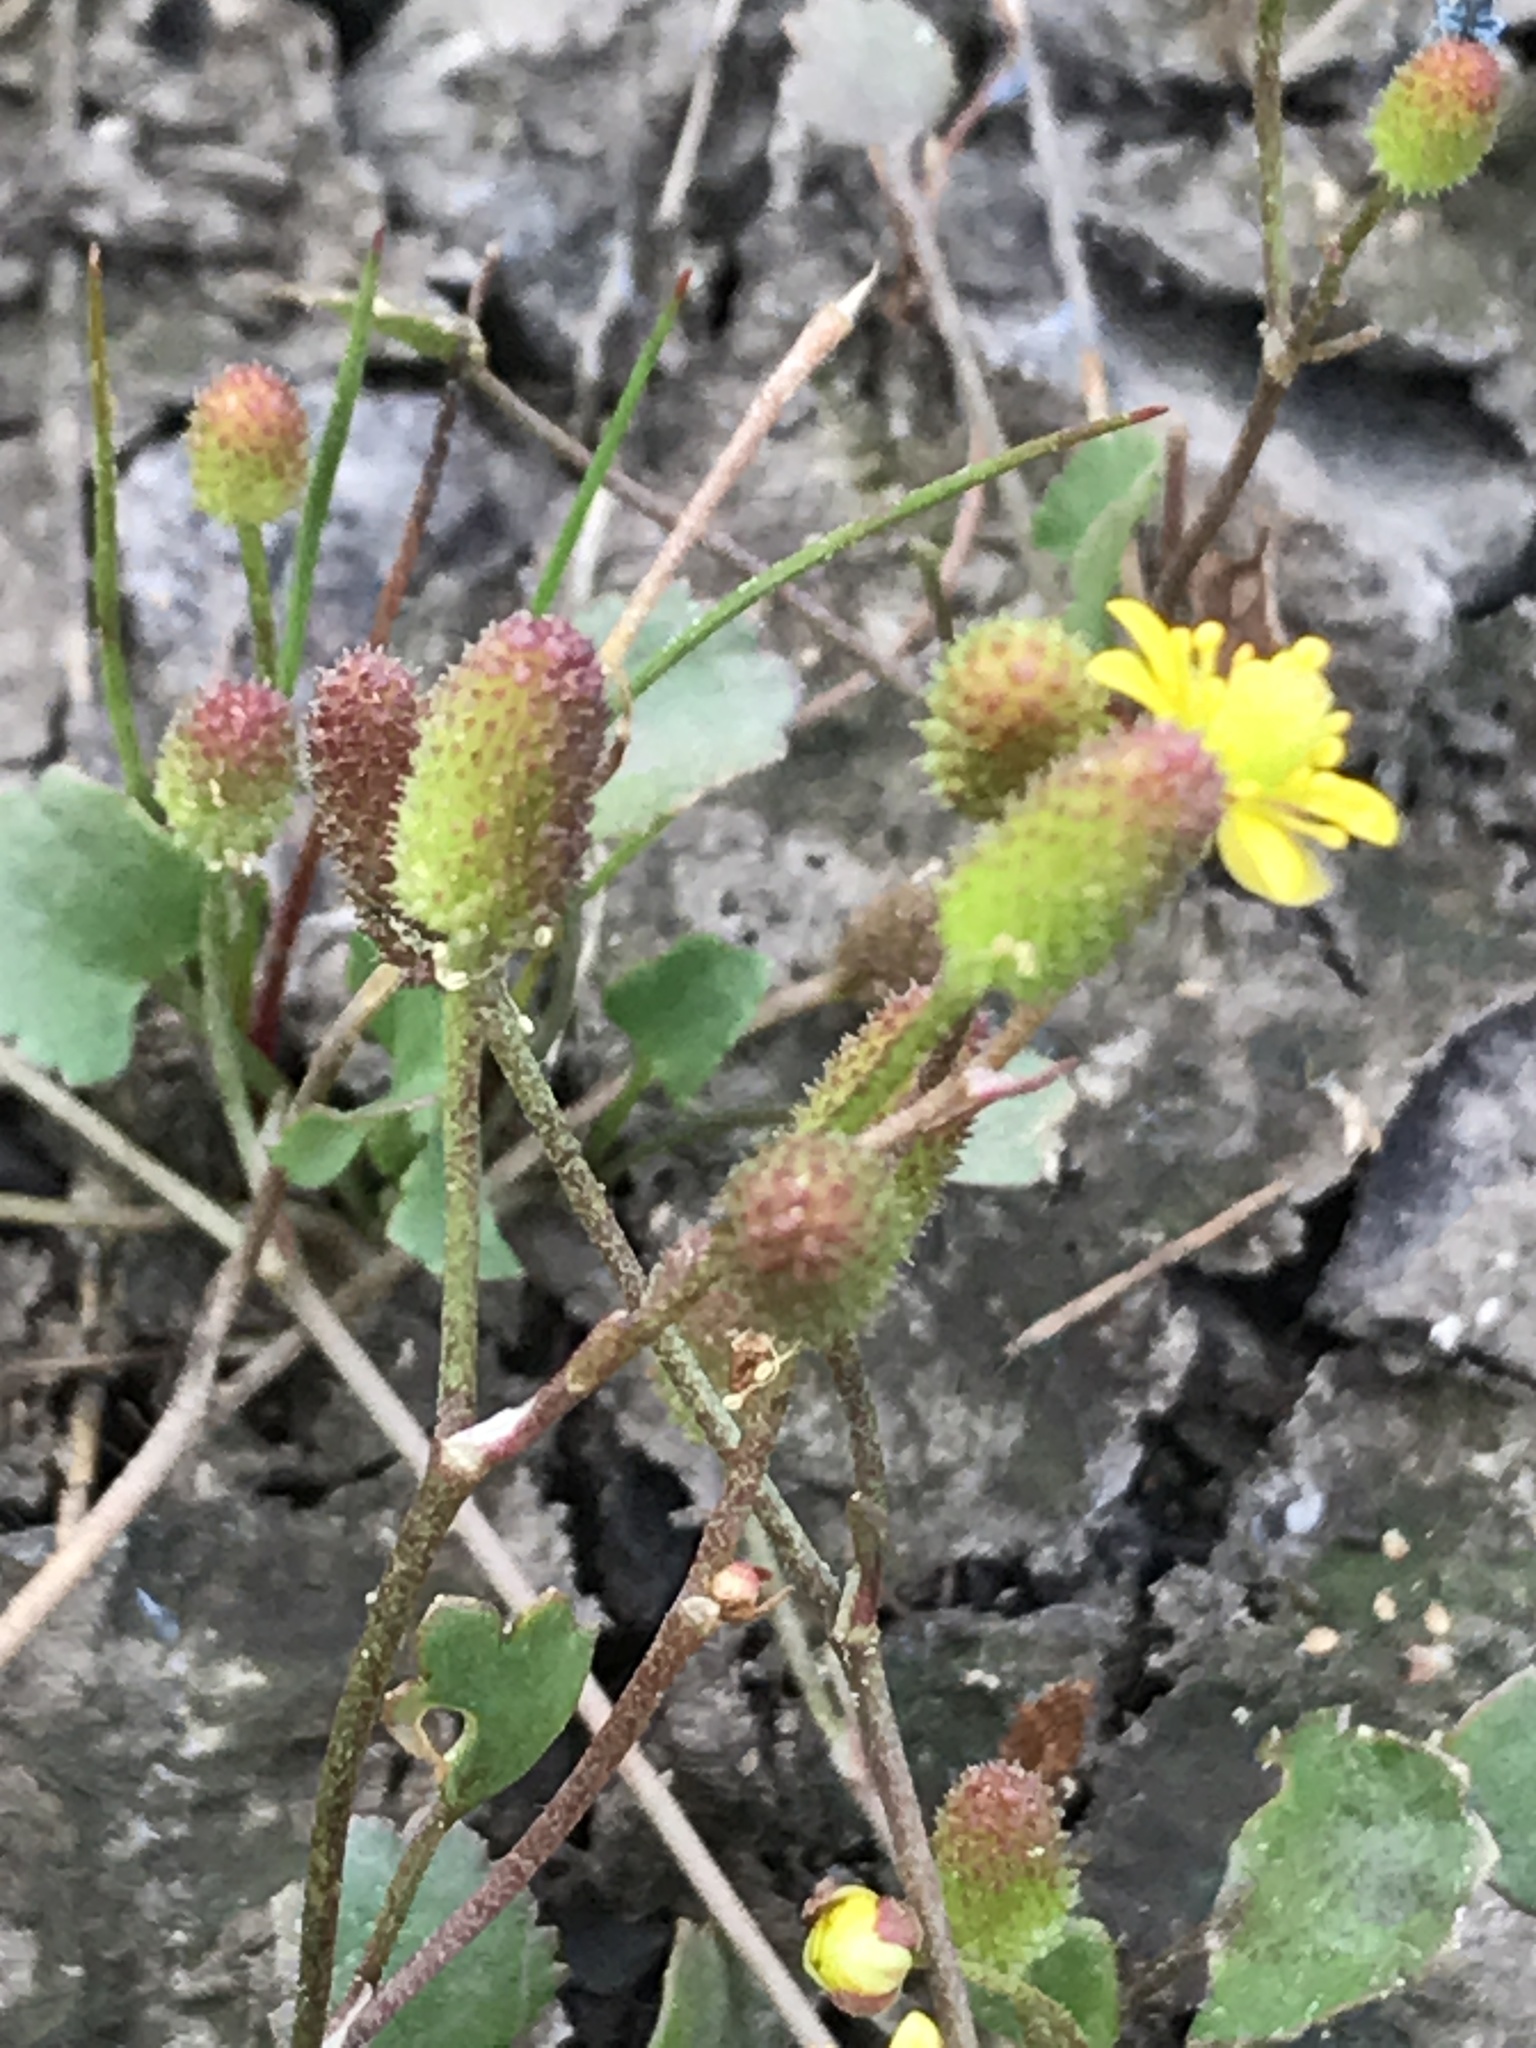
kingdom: Plantae
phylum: Tracheophyta
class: Magnoliopsida
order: Ranunculales
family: Ranunculaceae
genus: Halerpestes
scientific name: Halerpestes cymbalaria
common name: Seaside crowfoot
